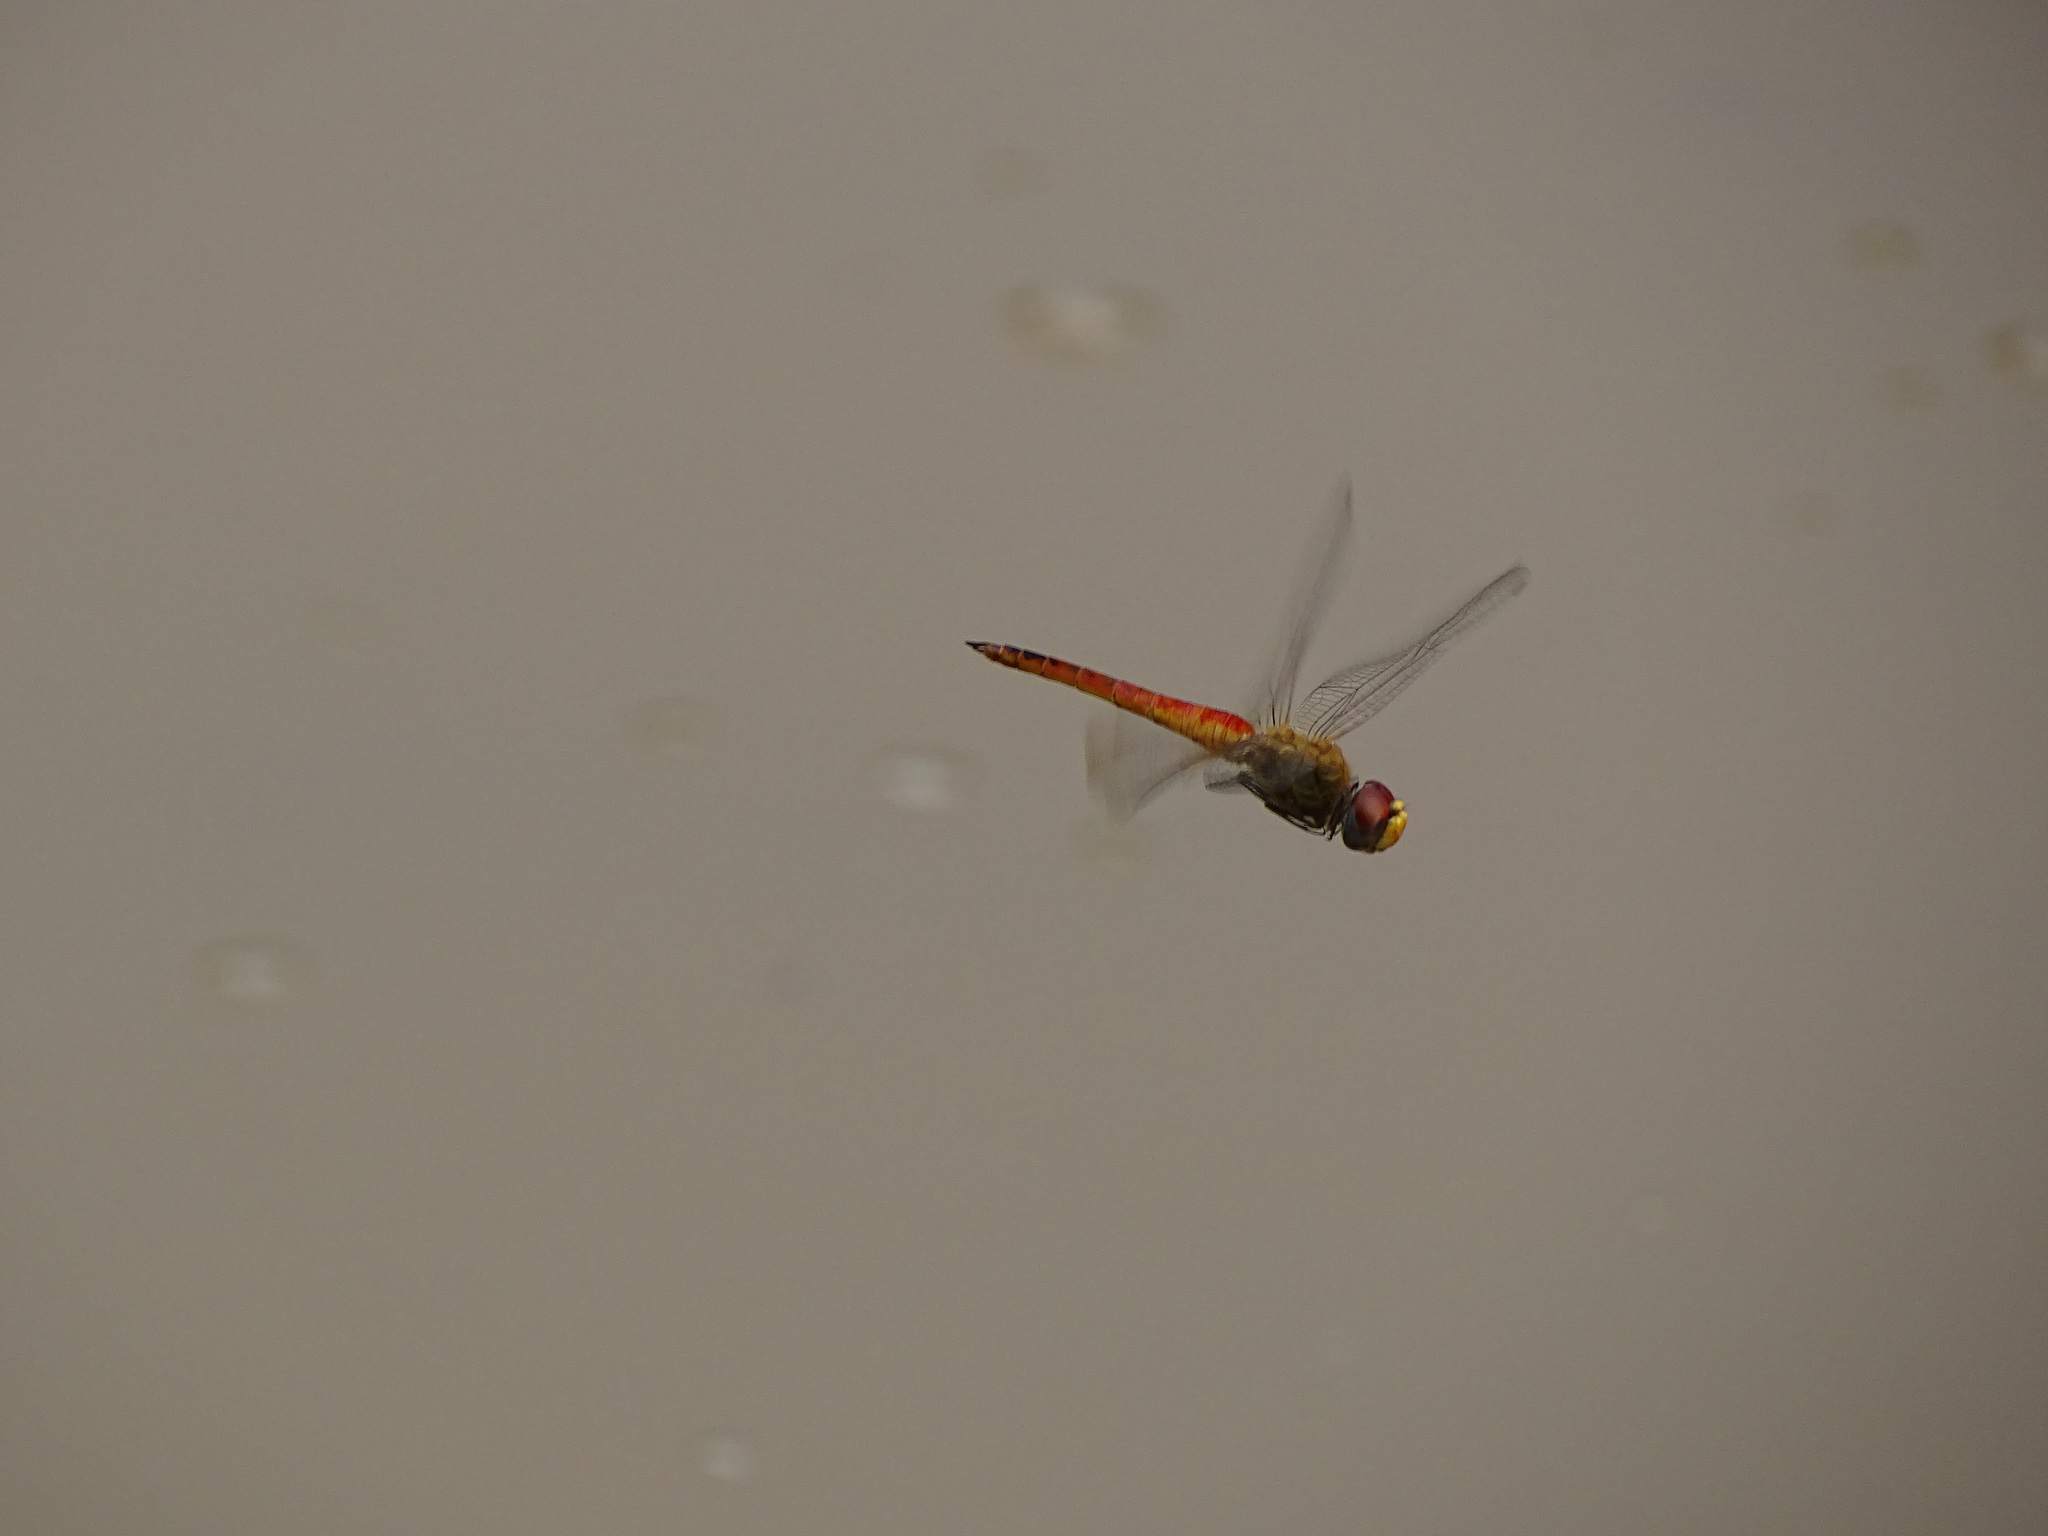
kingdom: Animalia
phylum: Arthropoda
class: Insecta
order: Odonata
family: Libellulidae
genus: Pantala
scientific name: Pantala flavescens
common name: Wandering glider
